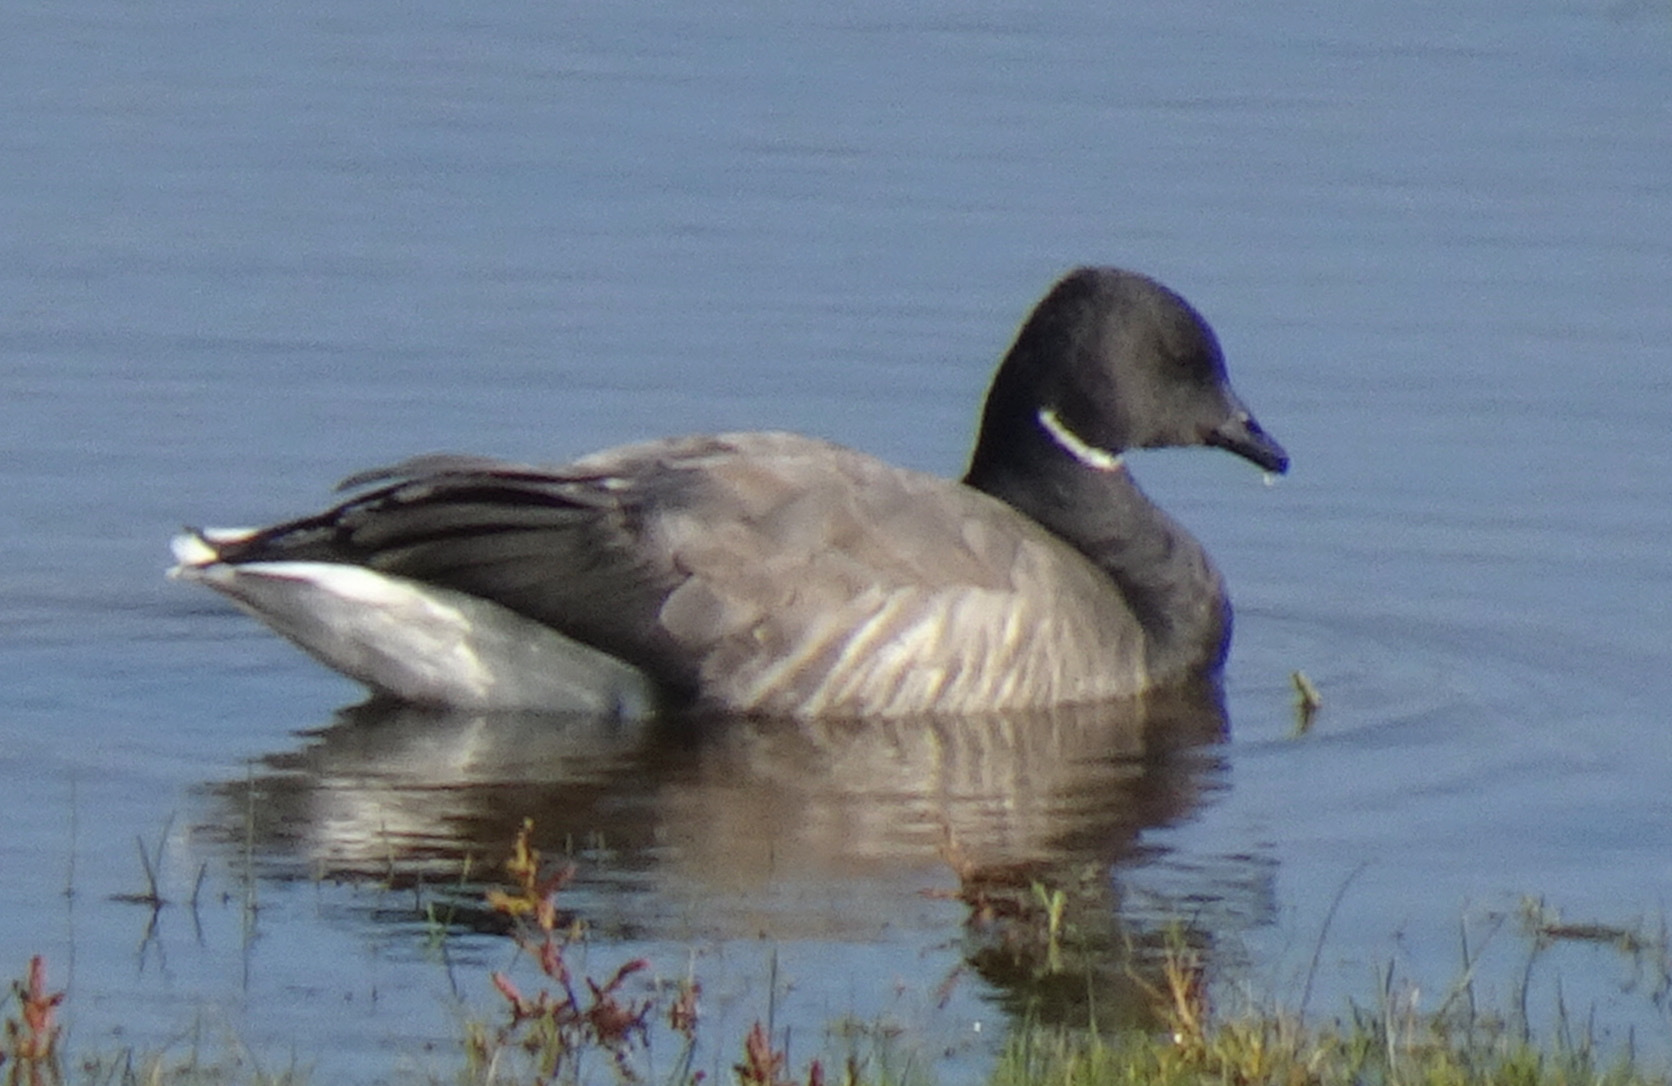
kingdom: Animalia
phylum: Chordata
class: Aves
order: Anseriformes
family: Anatidae
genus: Branta
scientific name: Branta bernicla
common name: Brant goose
